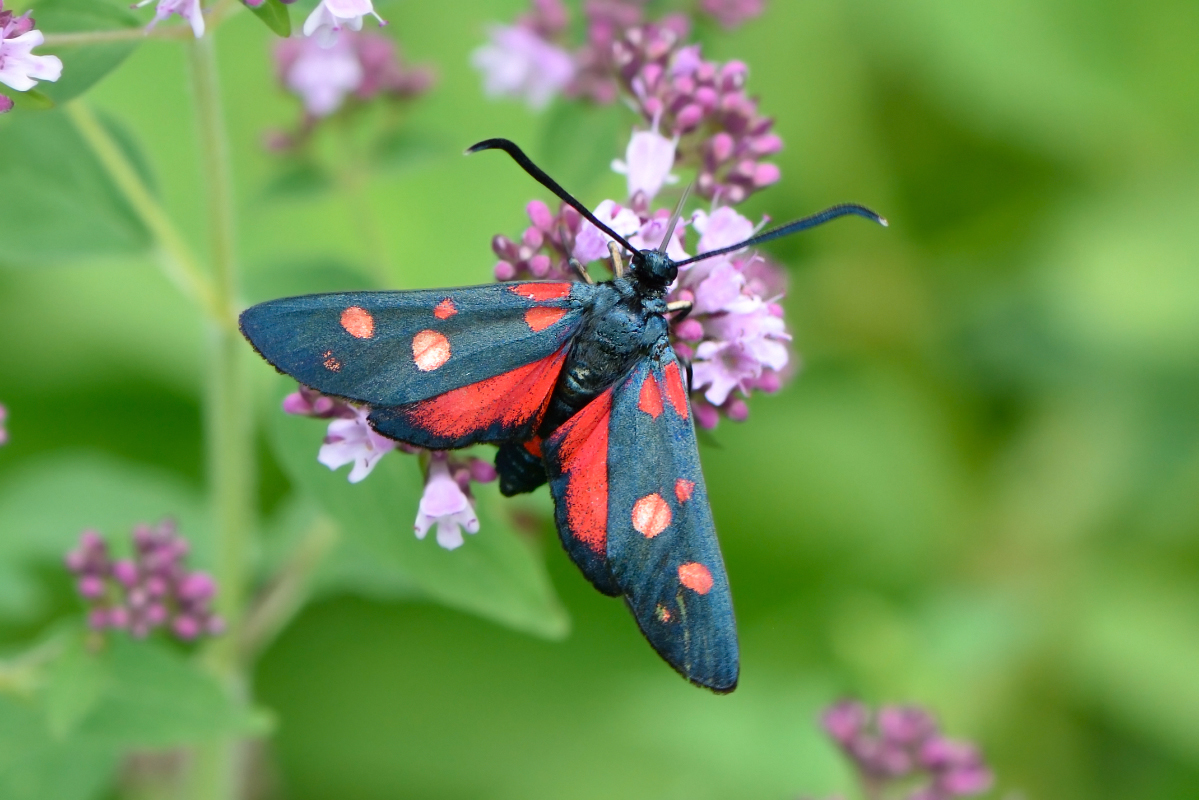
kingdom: Animalia
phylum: Arthropoda
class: Insecta
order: Lepidoptera
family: Zygaenidae
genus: Zygaena
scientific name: Zygaena ephialtes
